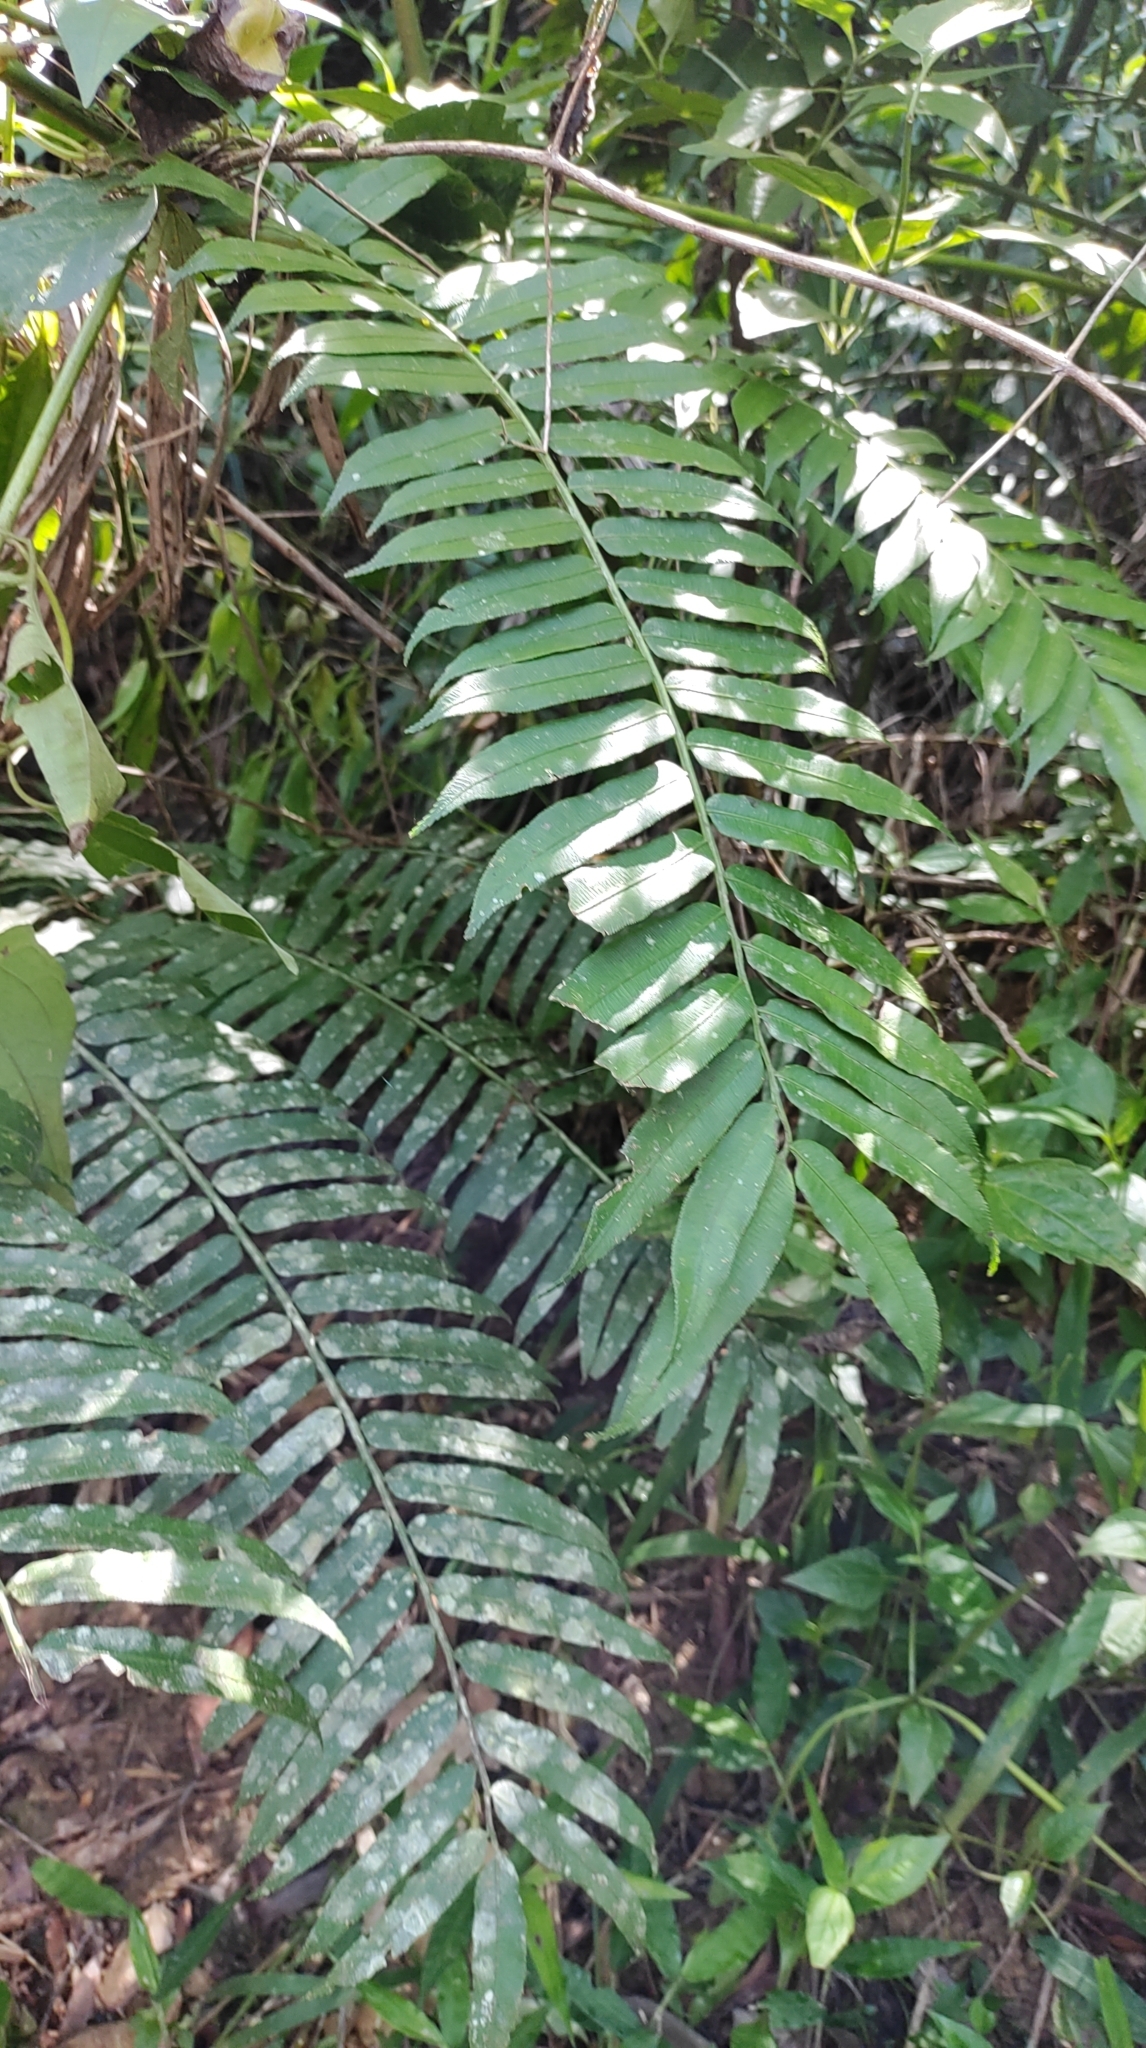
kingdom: Plantae
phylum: Tracheophyta
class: Polypodiopsida
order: Marattiales
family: Marattiaceae
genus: Angiopteris
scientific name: Angiopteris lygodiifolia
